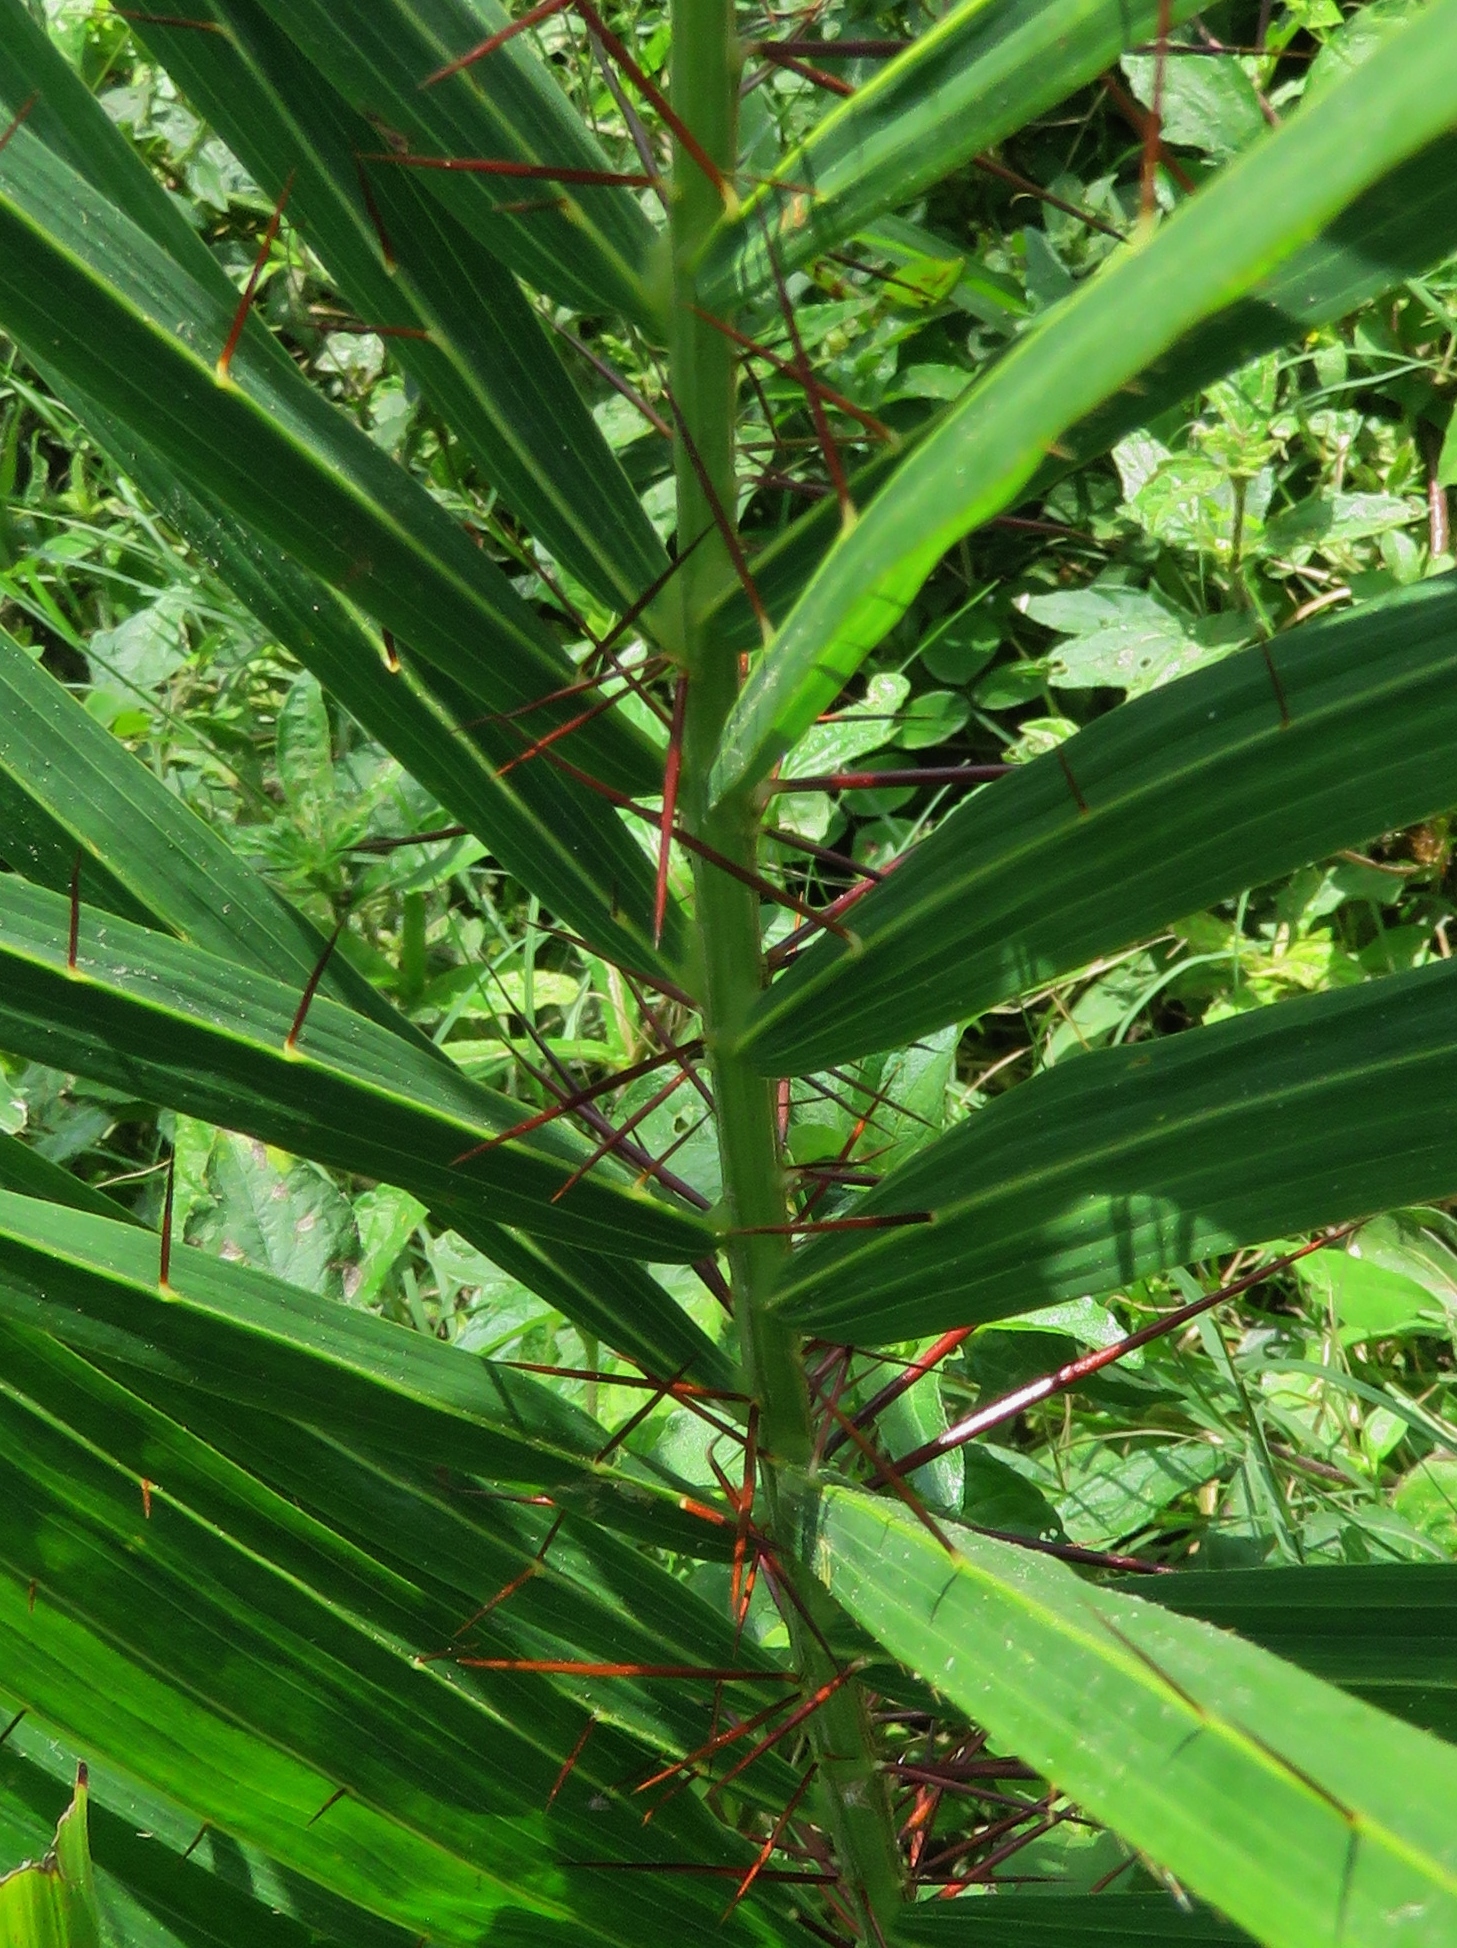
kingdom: Plantae
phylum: Tracheophyta
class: Liliopsida
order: Arecales
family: Arecaceae
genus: Acrocomia
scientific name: Acrocomia aculeata
